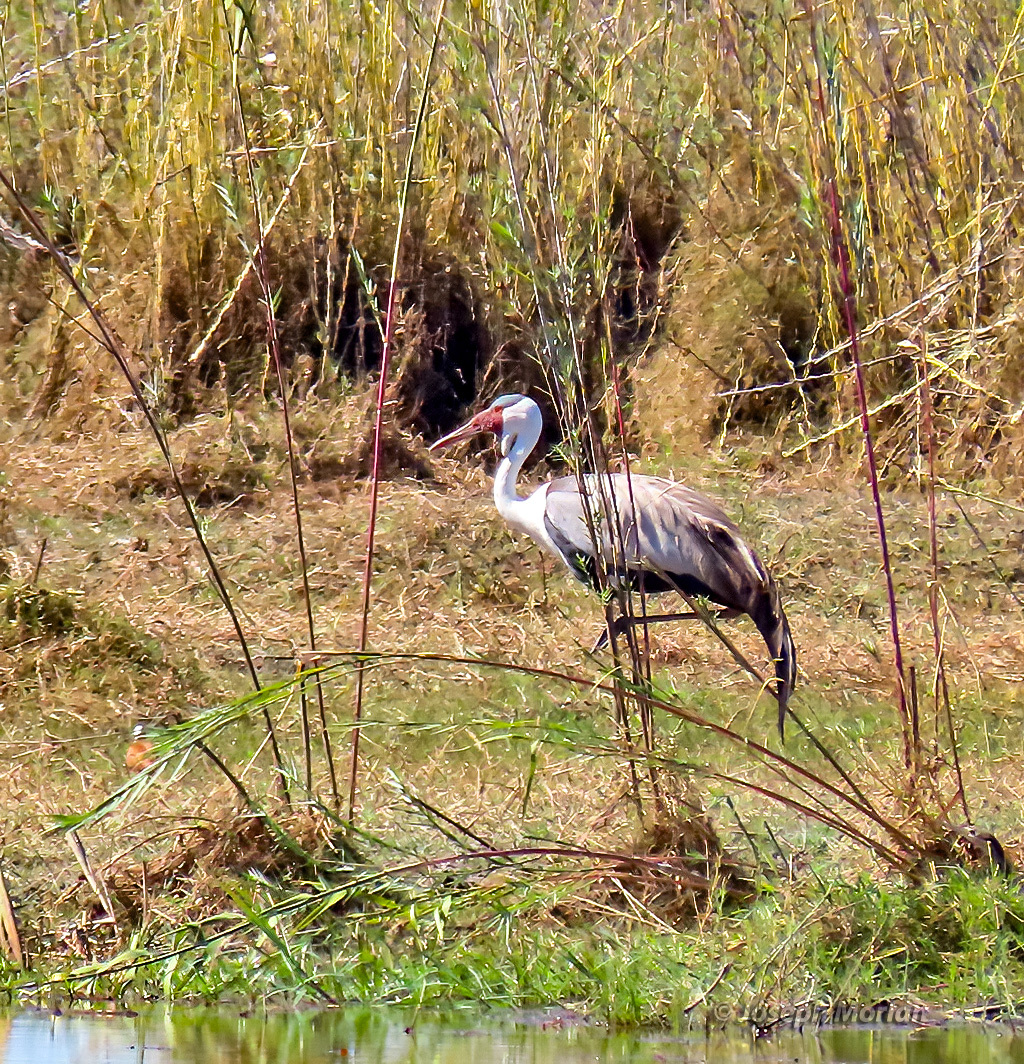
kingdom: Animalia
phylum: Chordata
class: Aves
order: Gruiformes
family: Gruidae
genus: Bugeranus
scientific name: Bugeranus carunculatus
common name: Wattled crane
